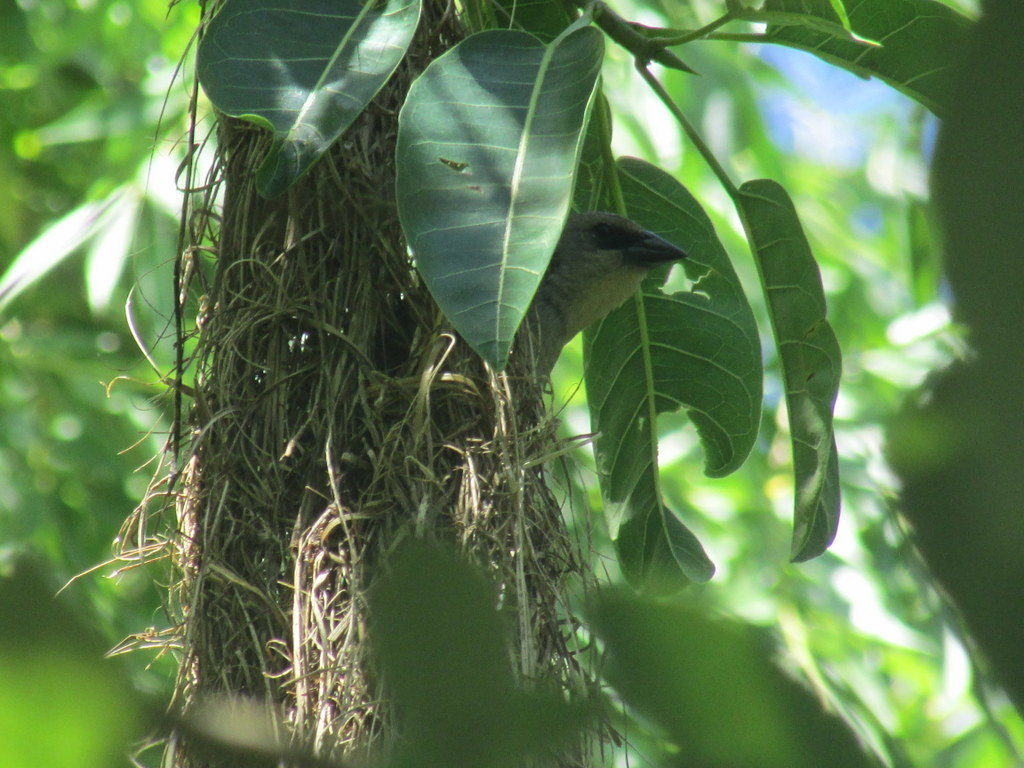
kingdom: Animalia
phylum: Chordata
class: Aves
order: Passeriformes
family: Icteridae
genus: Agelaioides
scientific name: Agelaioides badius
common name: Baywing
